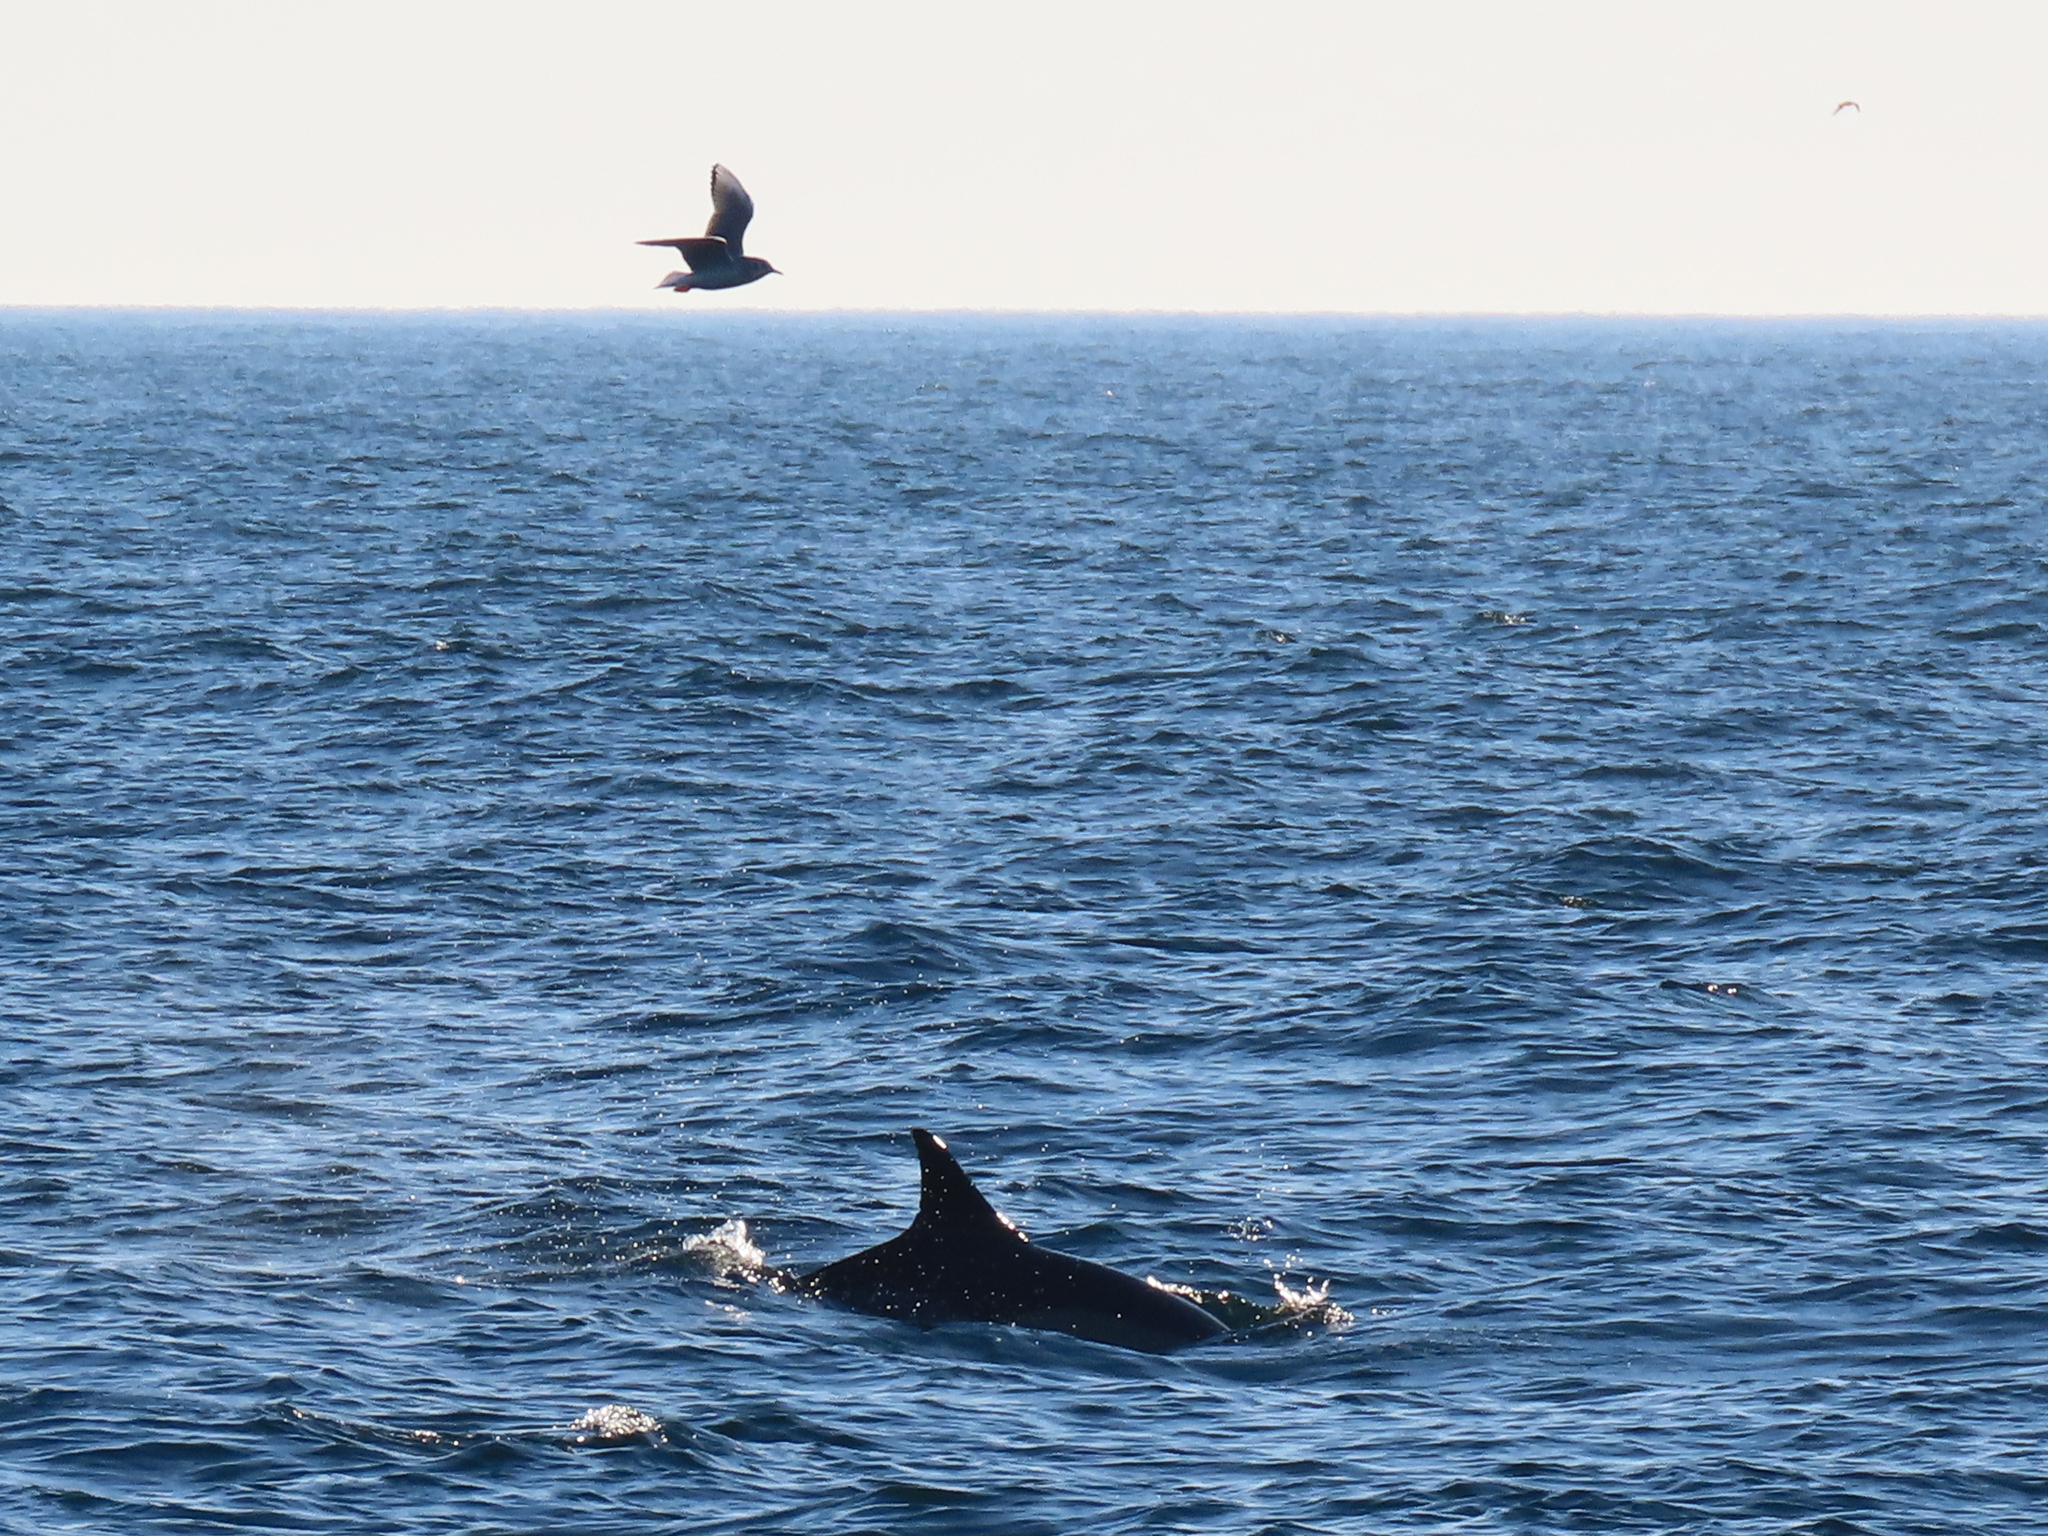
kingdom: Animalia
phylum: Chordata
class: Mammalia
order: Cetacea
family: Delphinidae
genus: Delphinus
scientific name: Delphinus delphis
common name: Common dolphin
